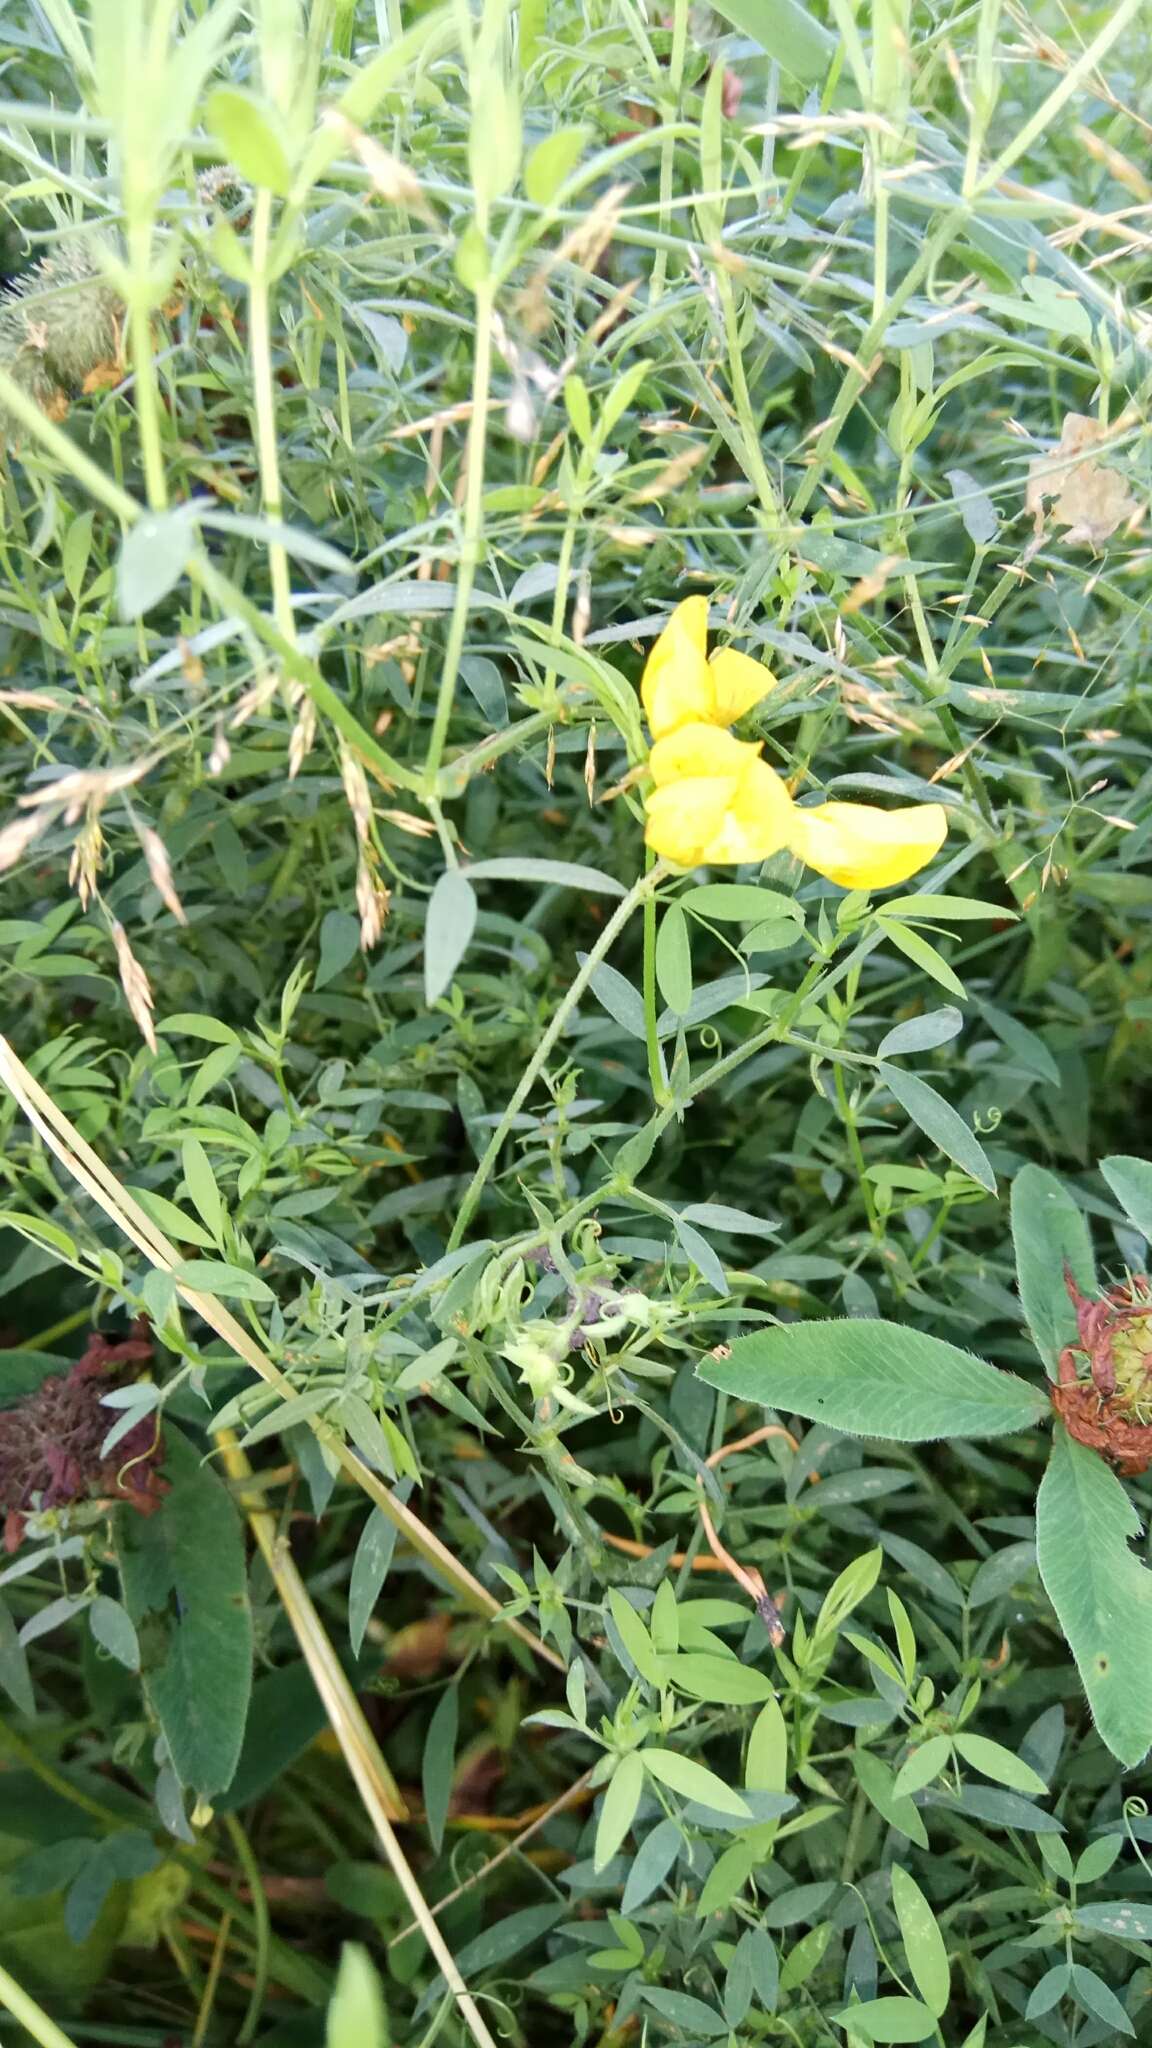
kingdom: Plantae
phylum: Tracheophyta
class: Magnoliopsida
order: Fabales
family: Fabaceae
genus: Lathyrus
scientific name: Lathyrus pratensis
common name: Meadow vetchling
